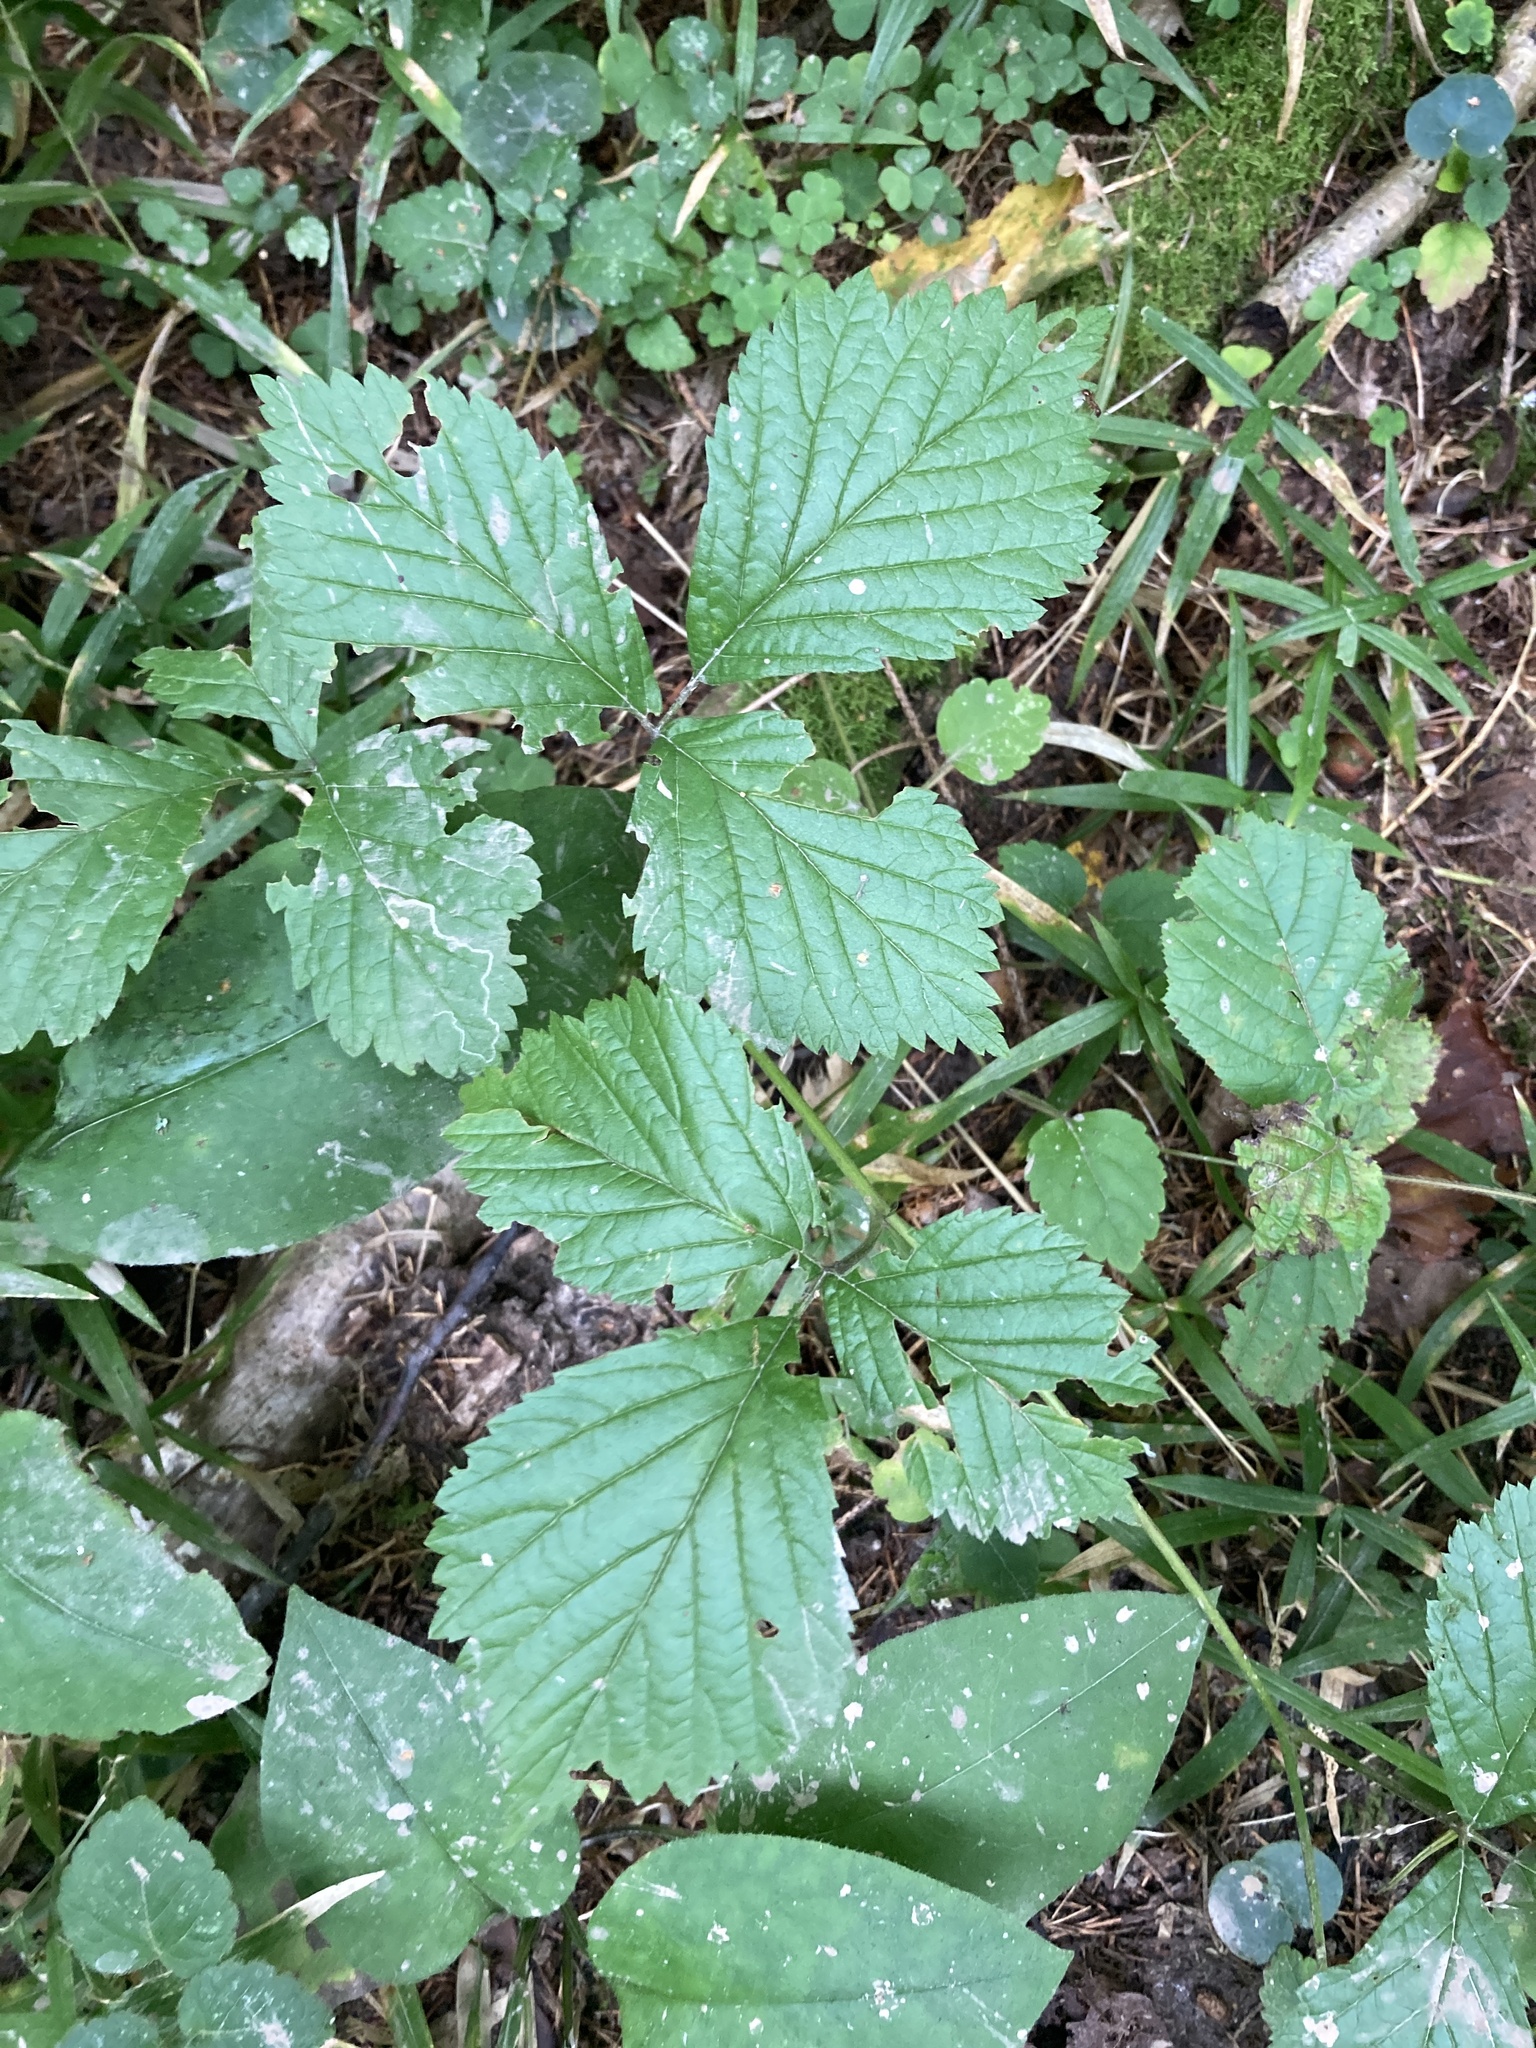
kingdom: Plantae
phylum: Tracheophyta
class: Magnoliopsida
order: Rosales
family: Rosaceae
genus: Rubus
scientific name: Rubus saxatilis
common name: Stone bramble
